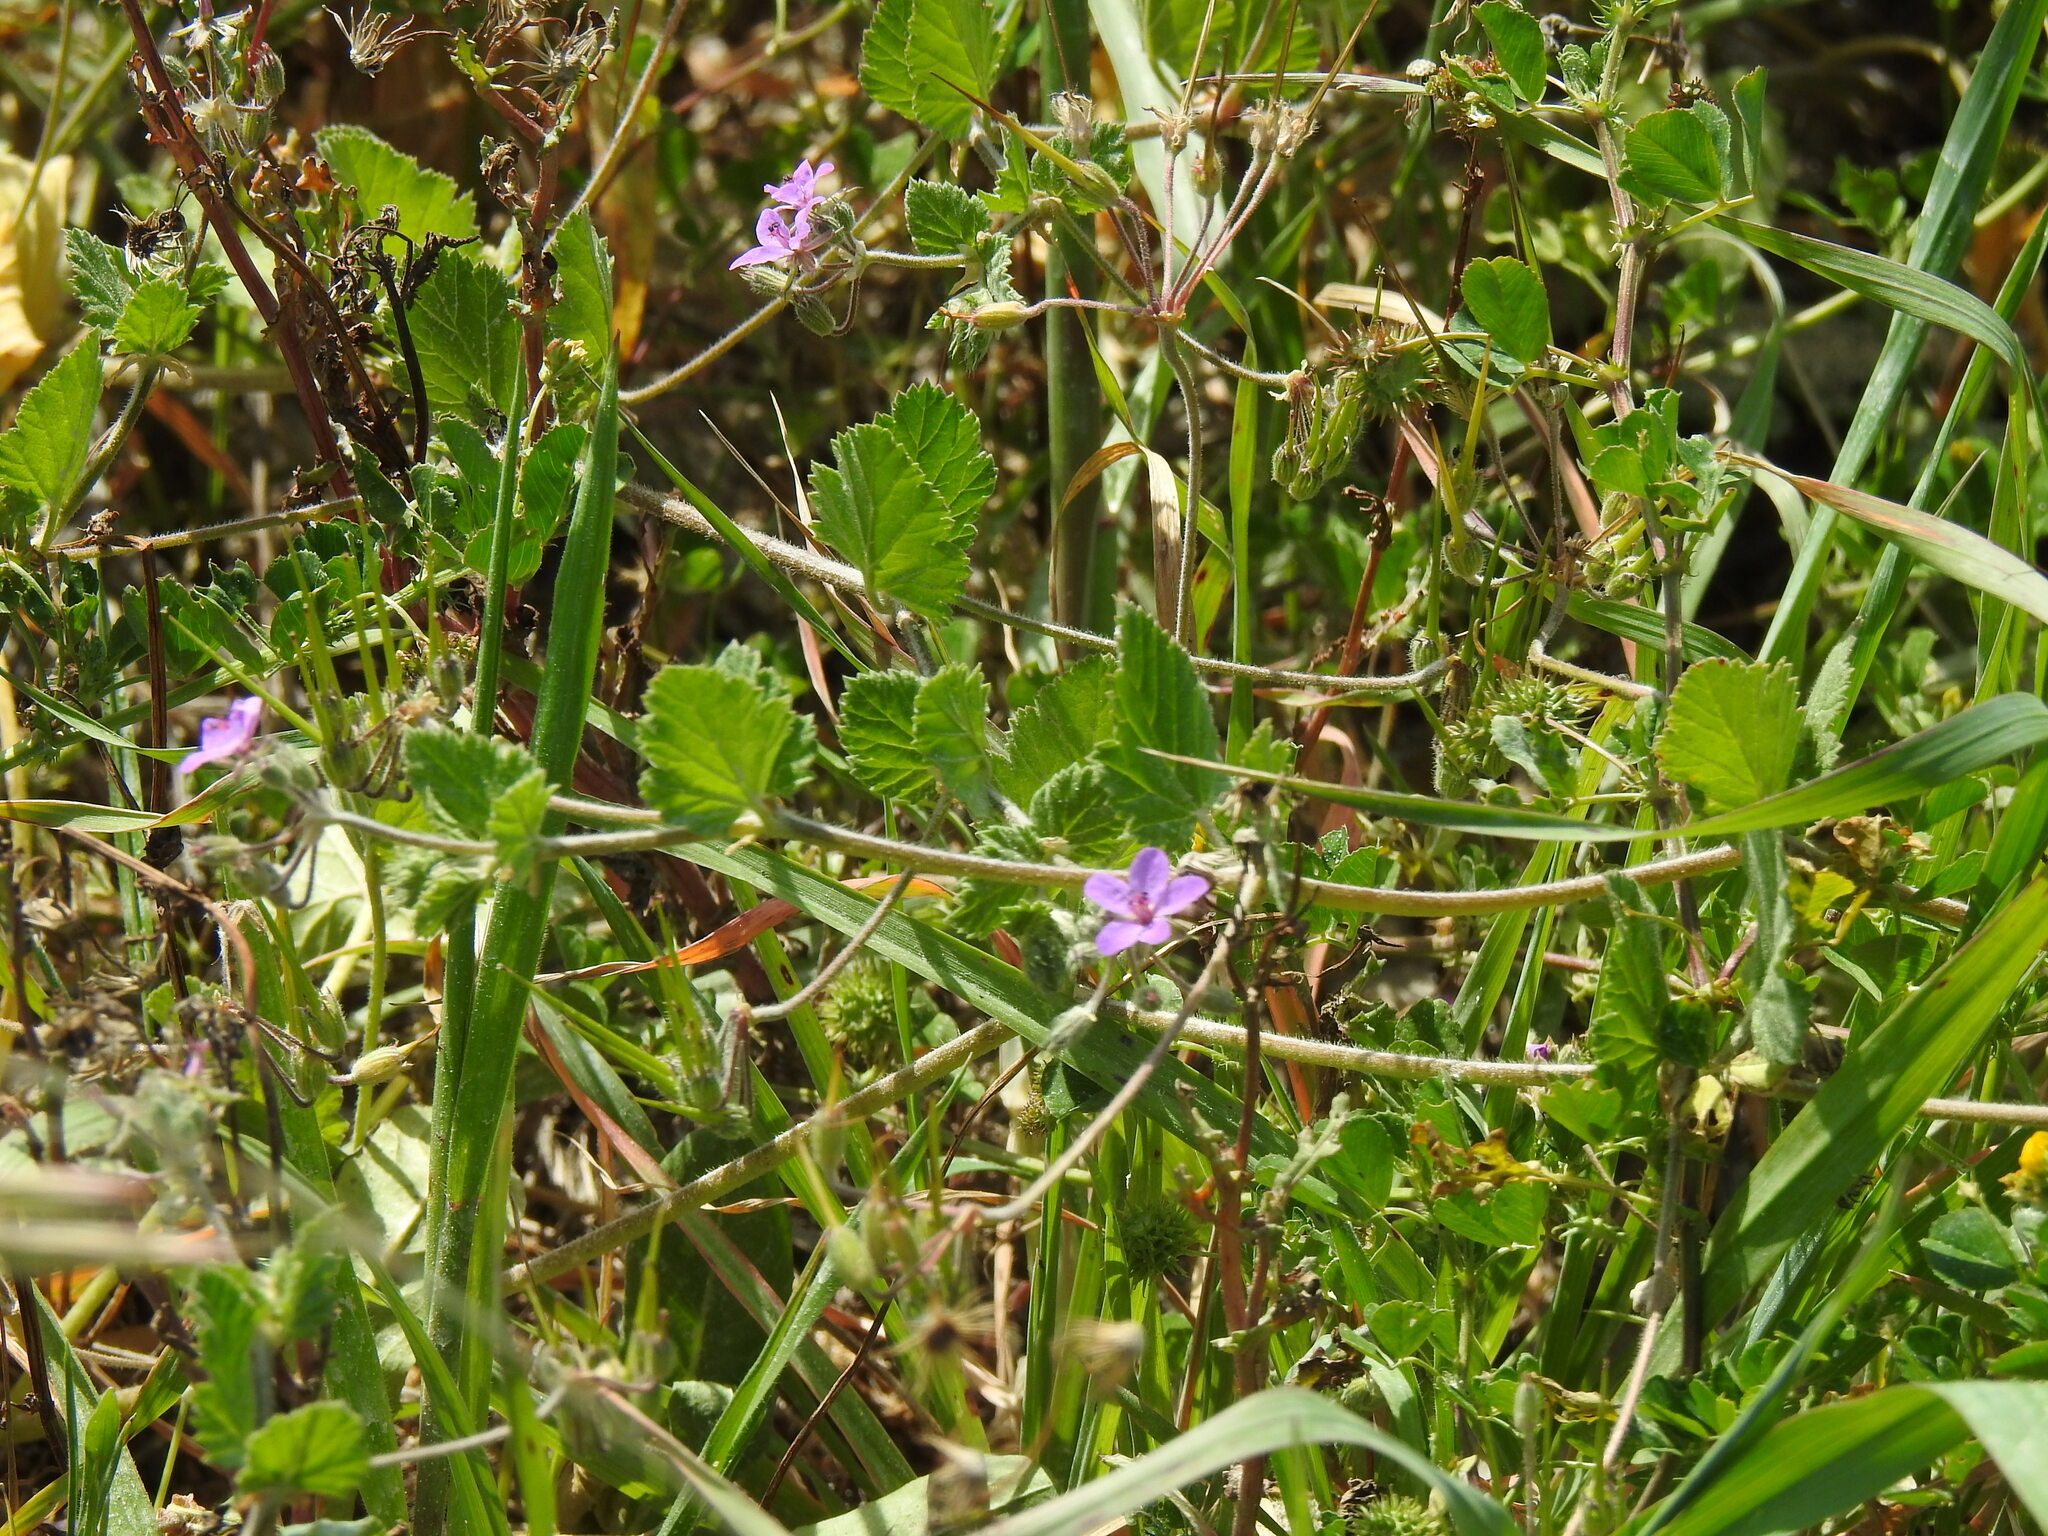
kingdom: Plantae
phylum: Tracheophyta
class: Magnoliopsida
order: Geraniales
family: Geraniaceae
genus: Erodium
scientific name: Erodium malacoides
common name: Soft stork's-bill
